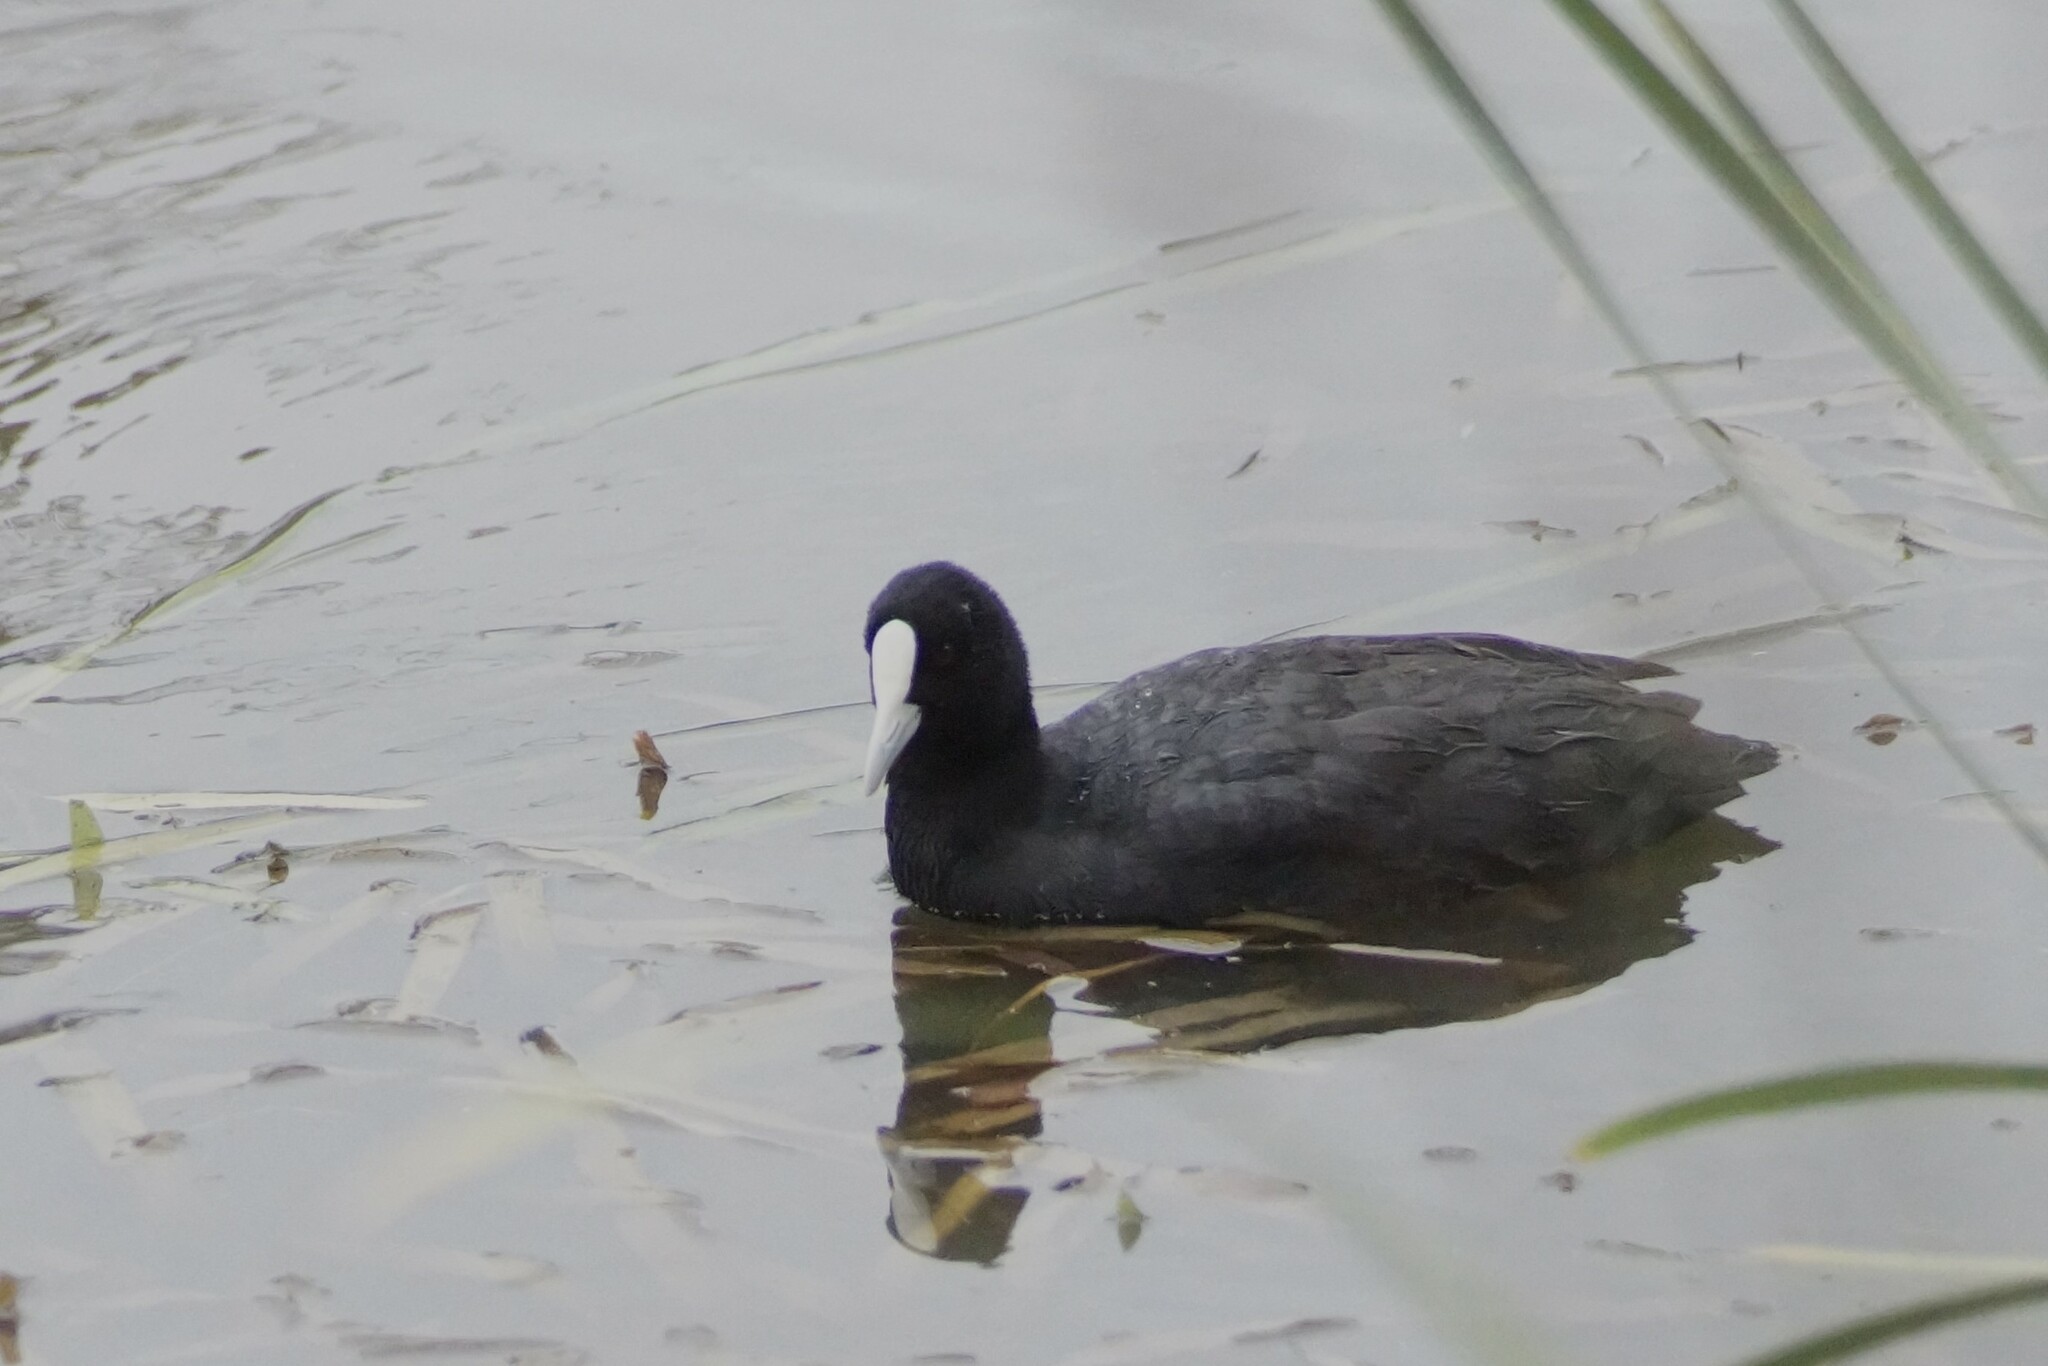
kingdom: Animalia
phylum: Chordata
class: Aves
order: Gruiformes
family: Rallidae
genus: Fulica
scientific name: Fulica atra
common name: Eurasian coot
